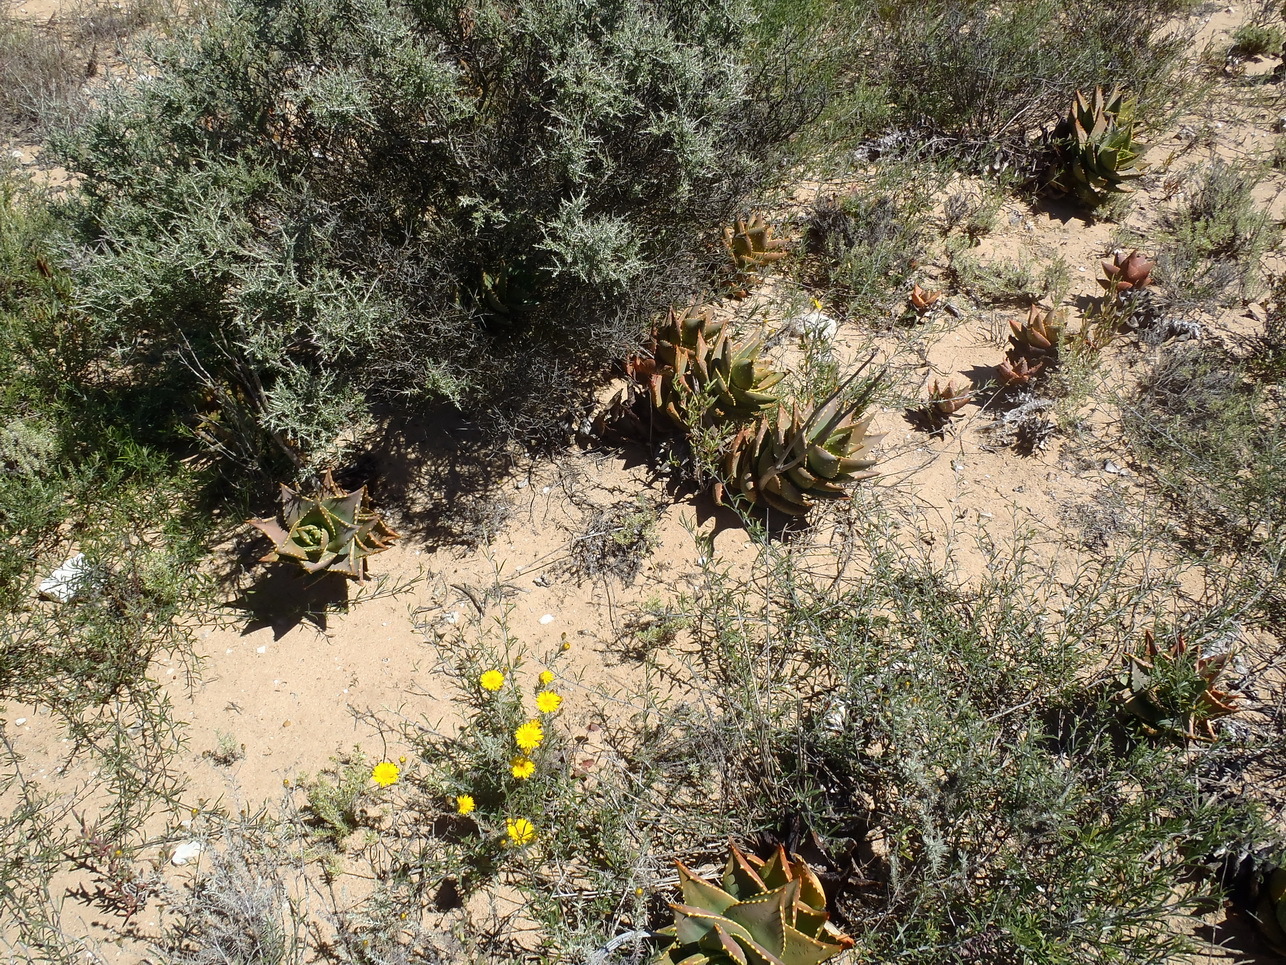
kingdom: Plantae
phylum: Tracheophyta
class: Liliopsida
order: Asparagales
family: Asphodelaceae
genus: Aloe
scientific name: Aloe distans
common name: Short-leaved aloe
